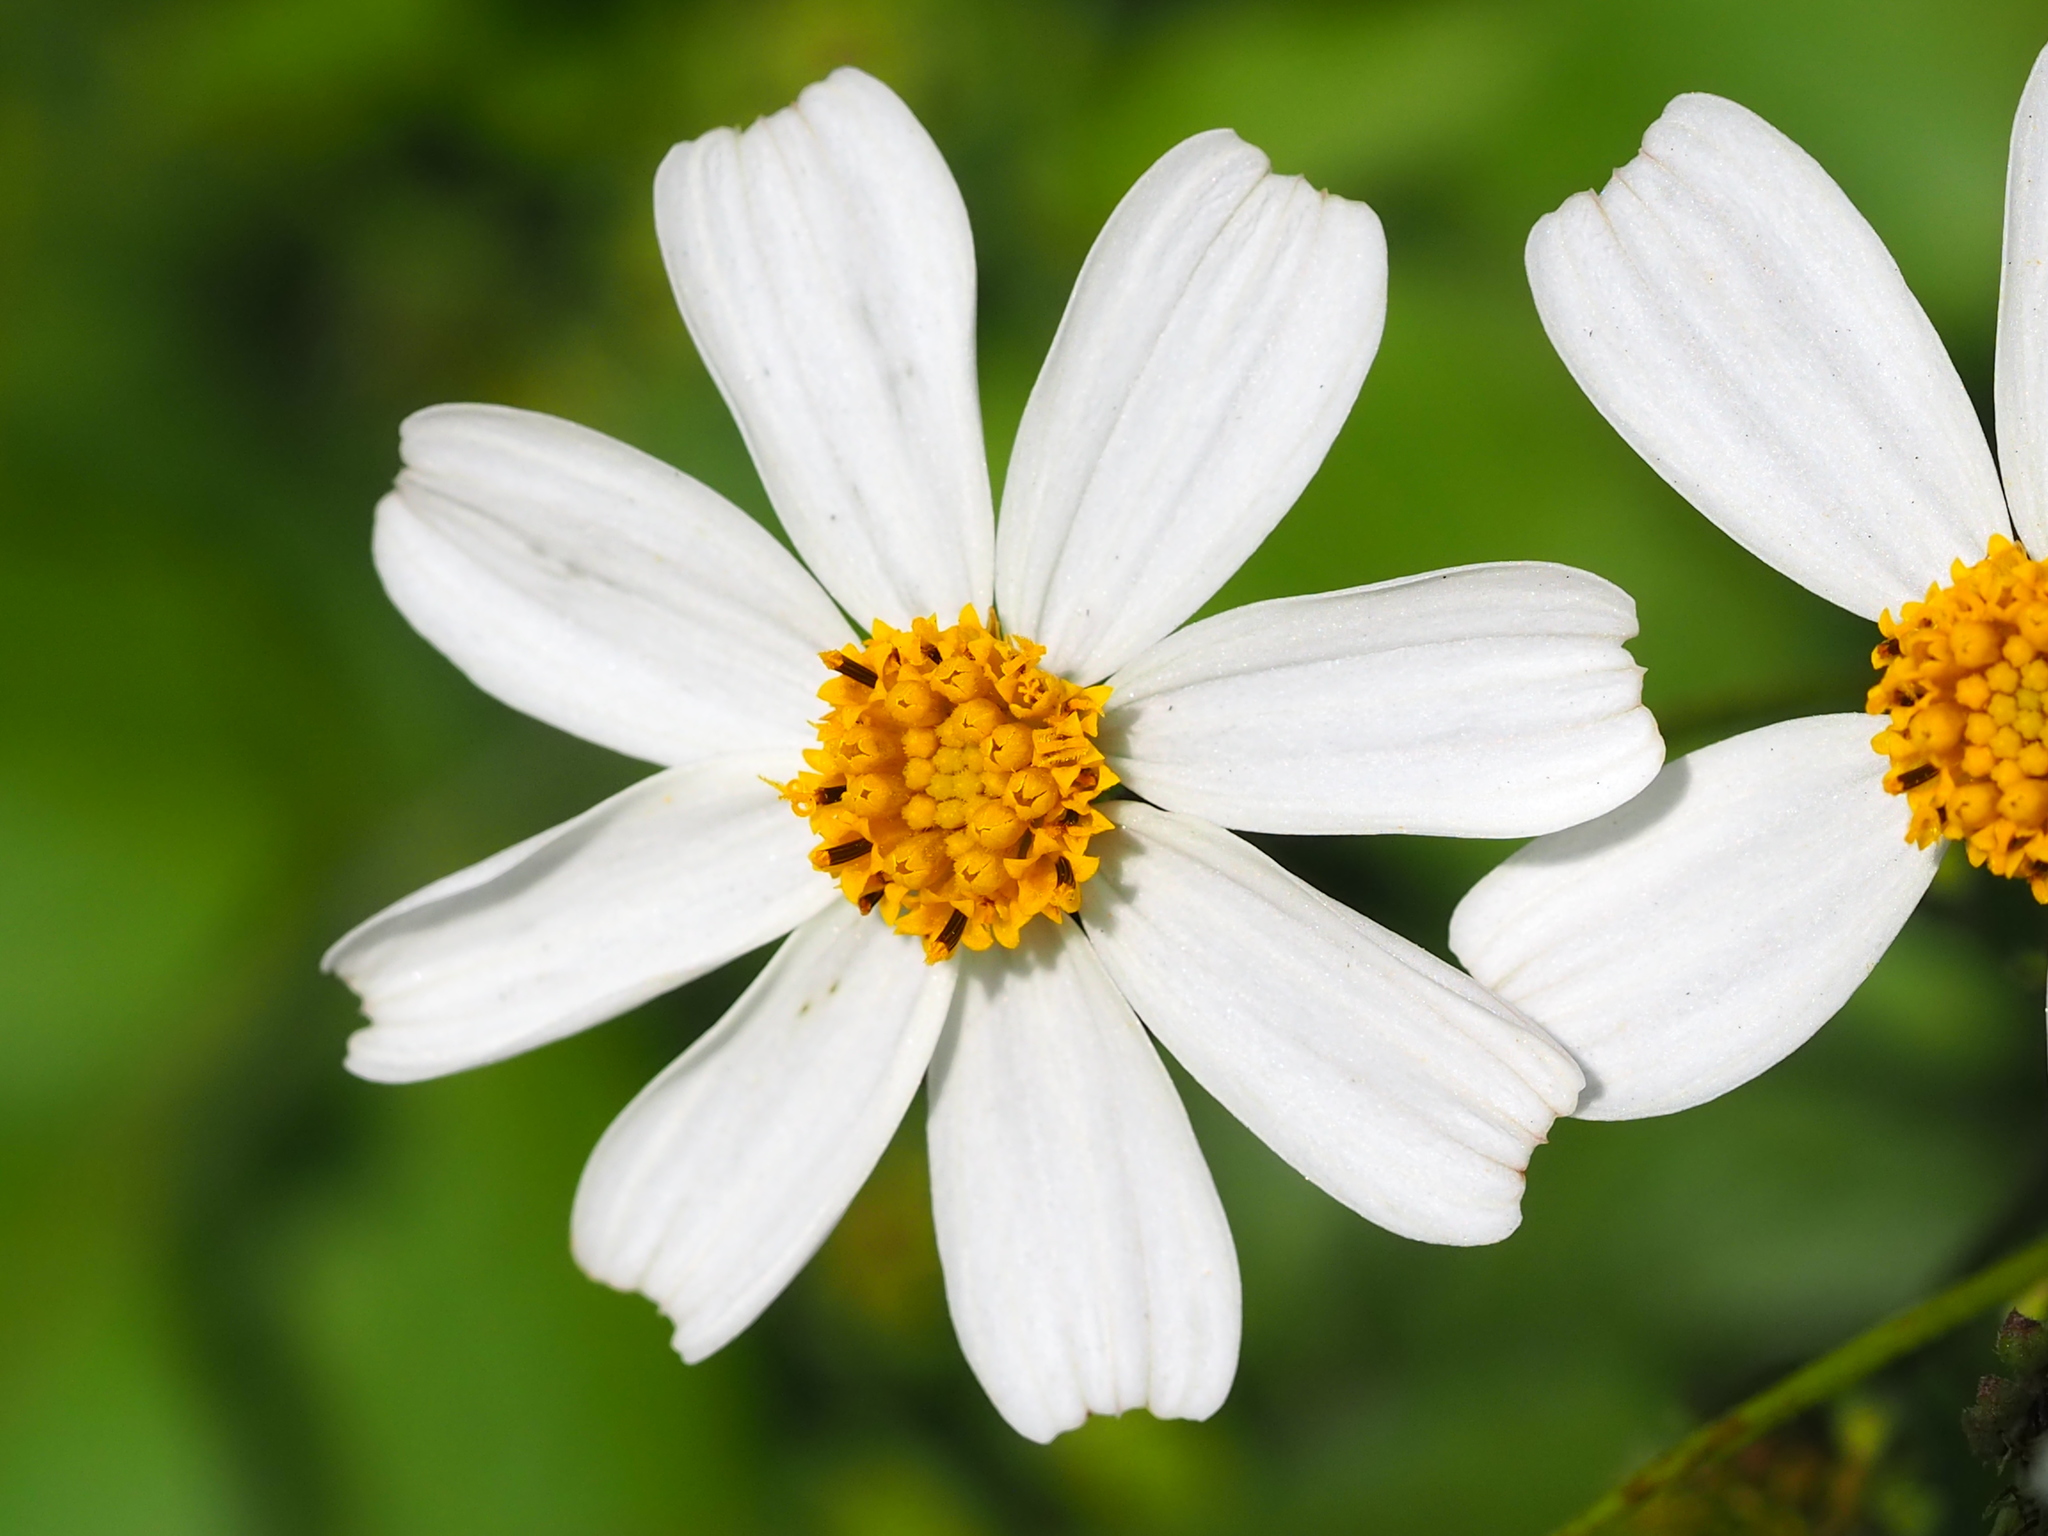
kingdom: Plantae
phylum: Tracheophyta
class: Magnoliopsida
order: Asterales
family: Asteraceae
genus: Bidens
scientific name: Bidens alba
